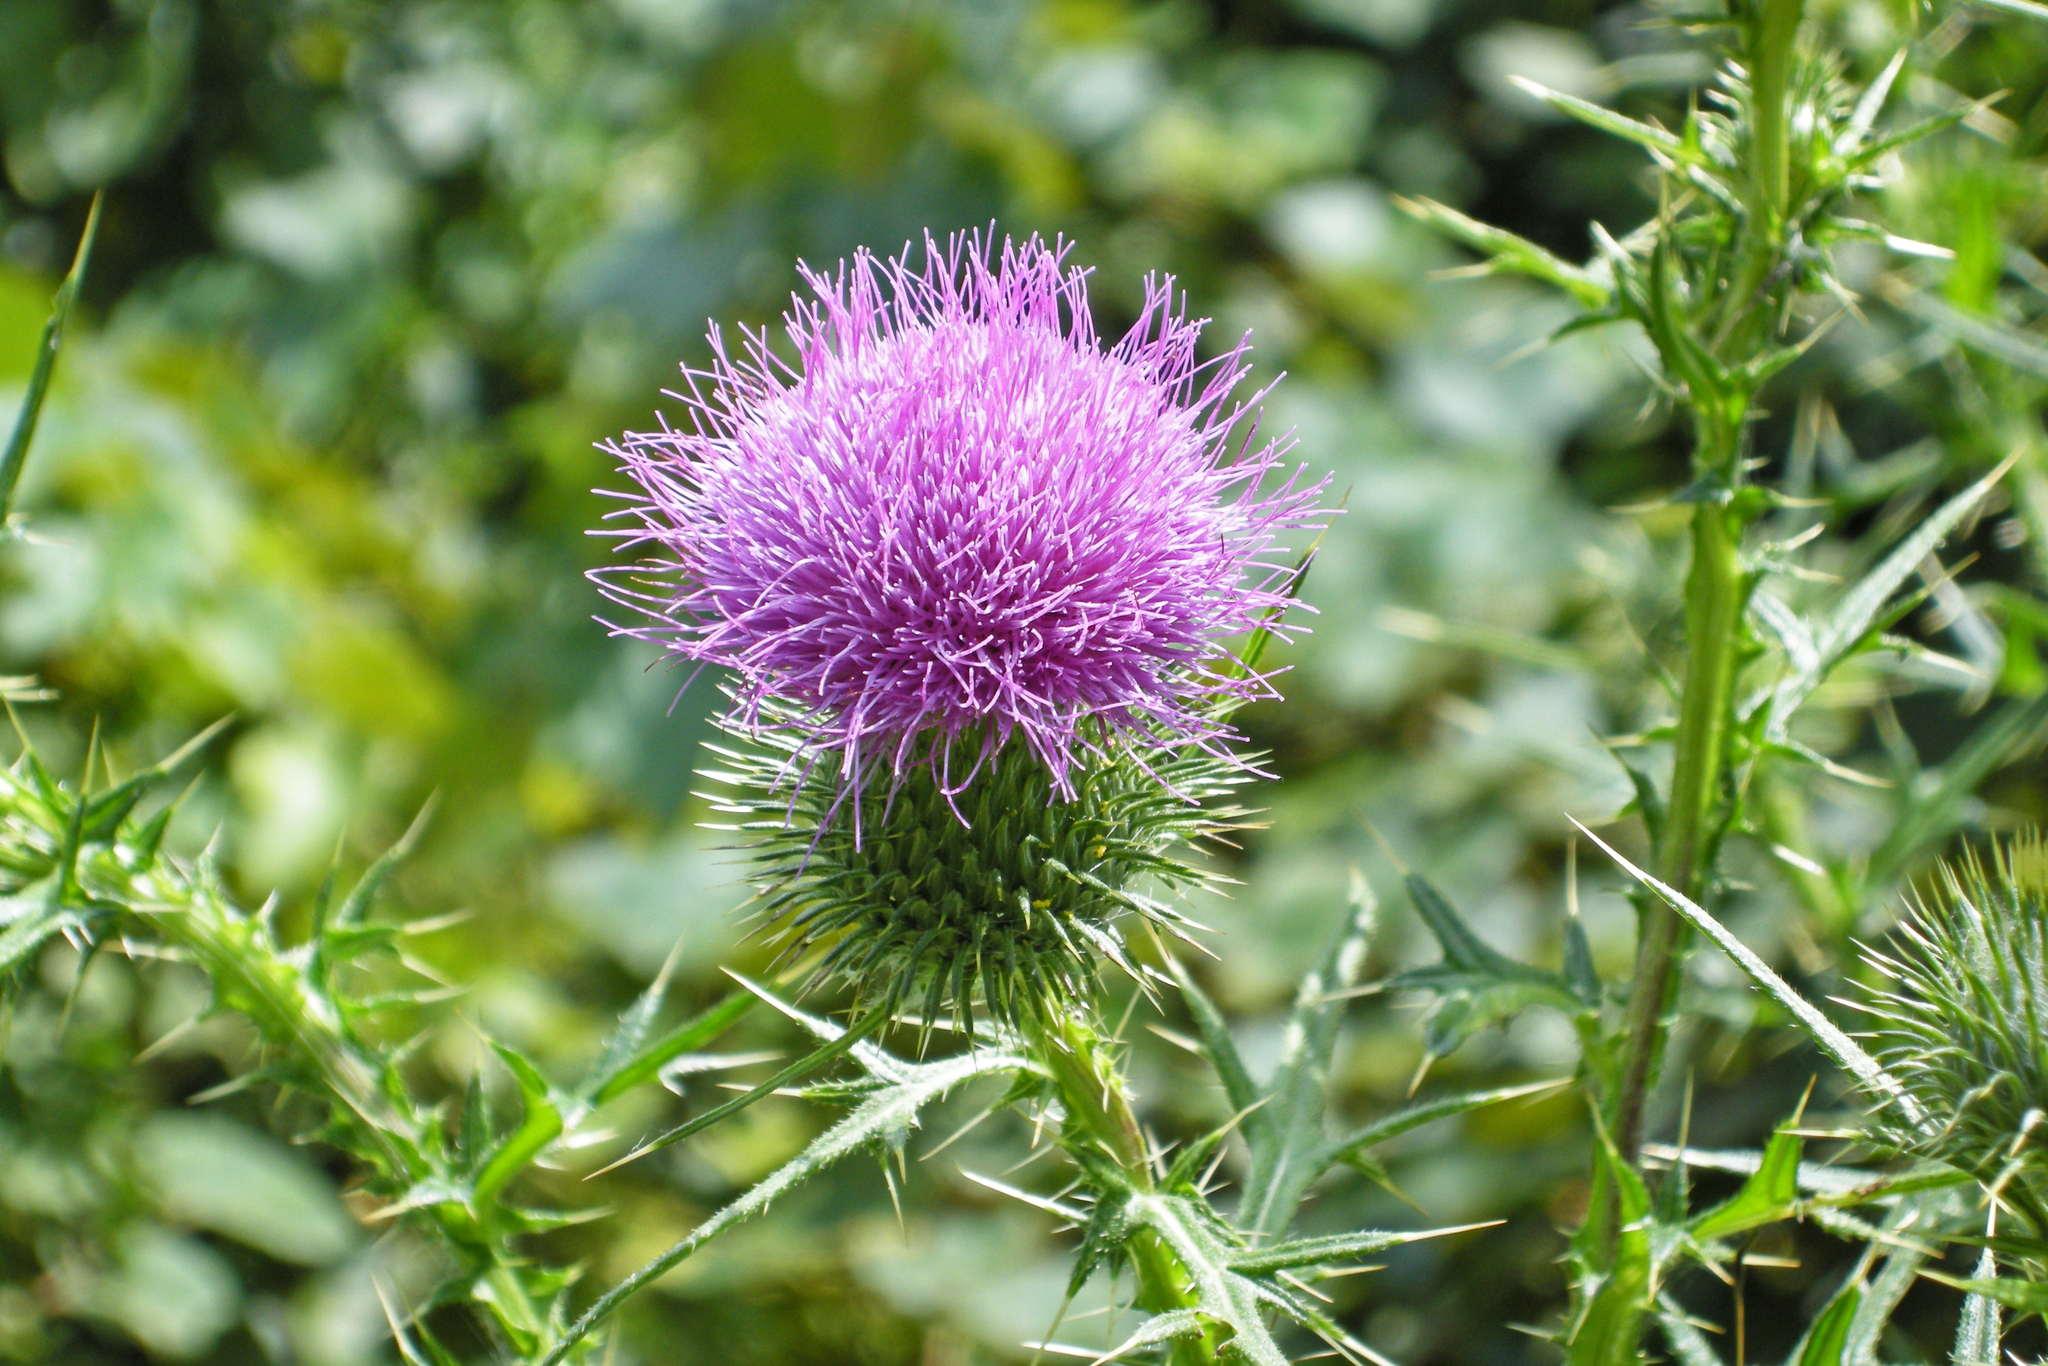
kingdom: Plantae
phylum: Tracheophyta
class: Magnoliopsida
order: Asterales
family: Asteraceae
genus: Cirsium
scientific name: Cirsium vulgare
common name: Bull thistle
